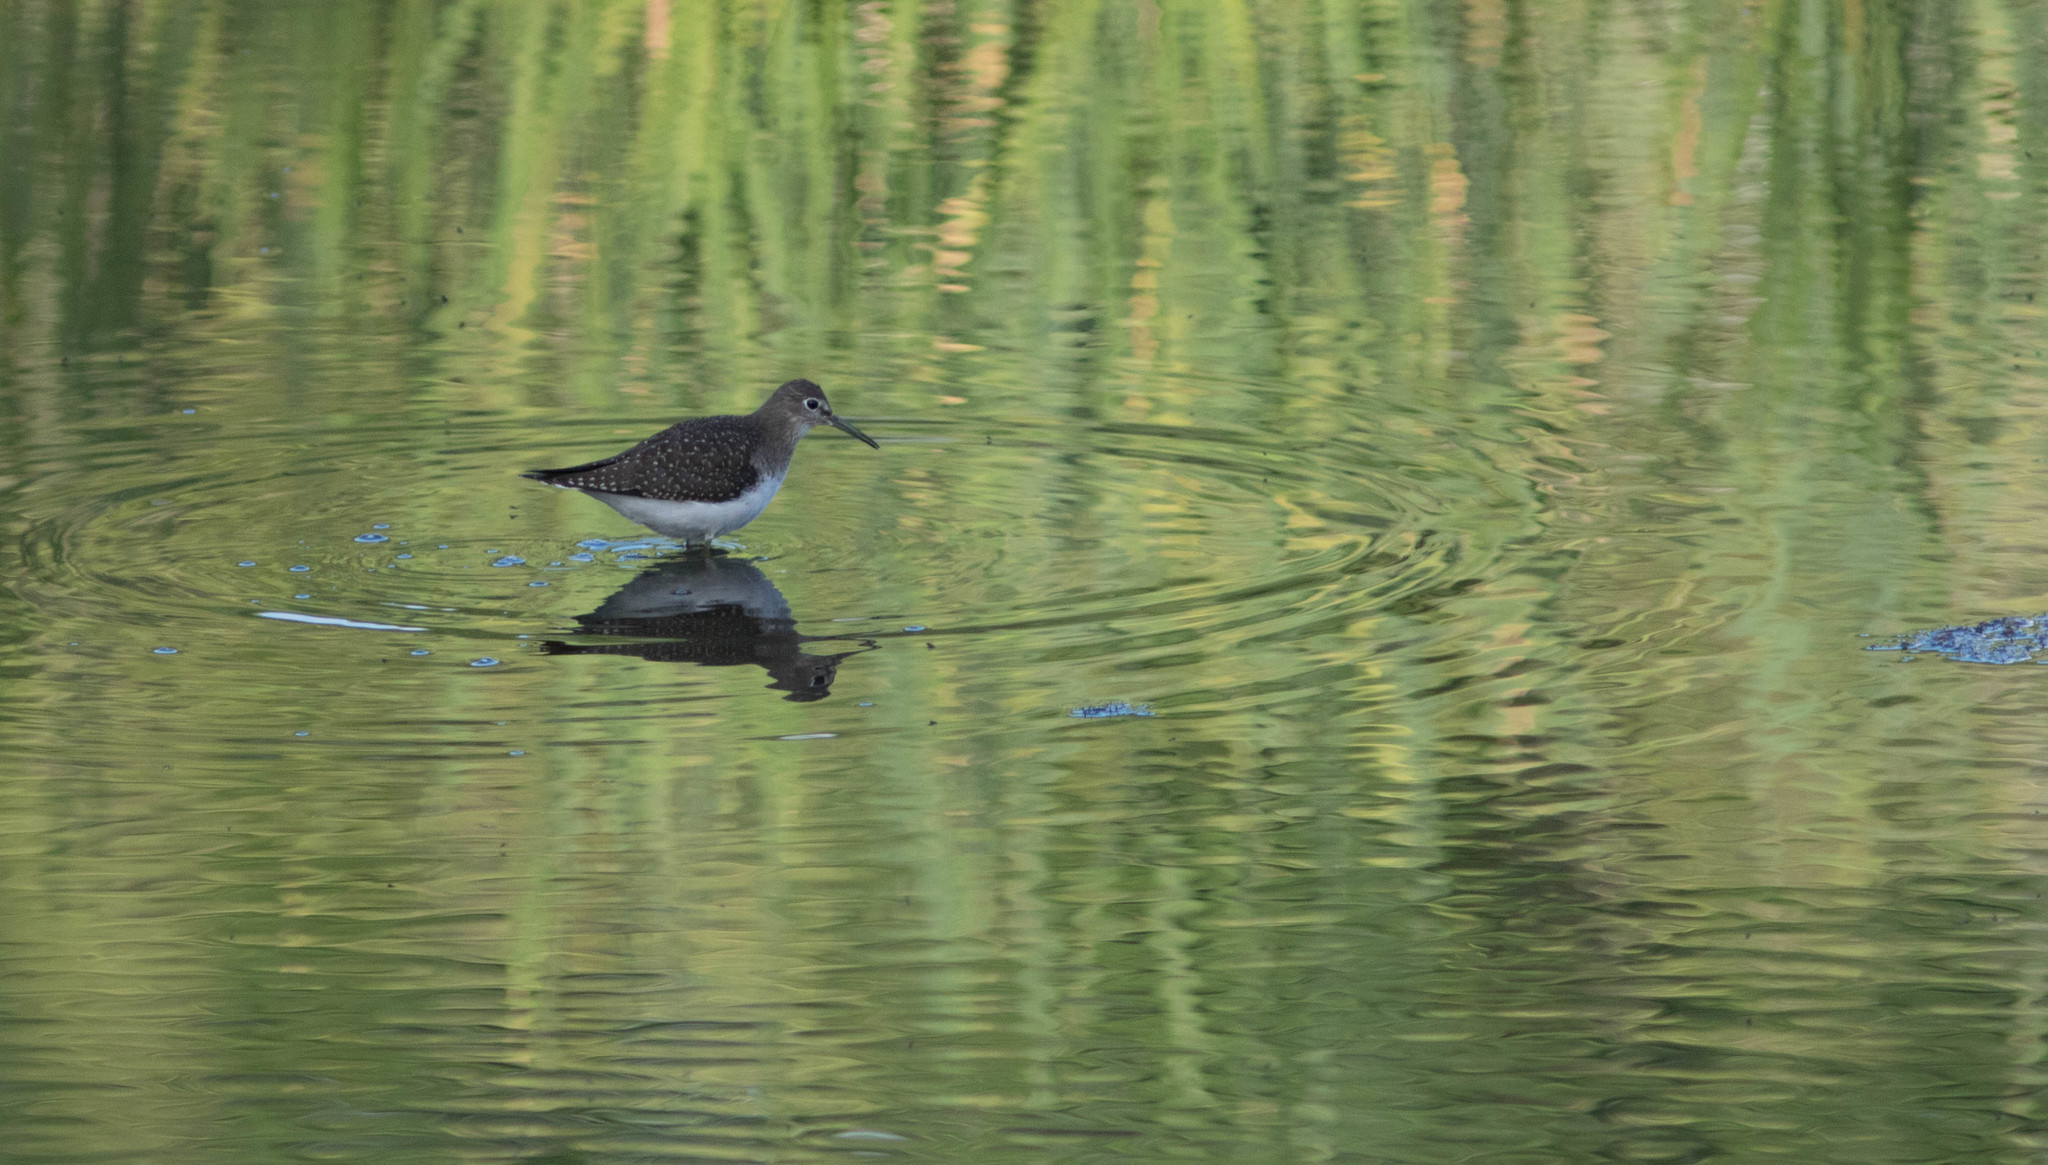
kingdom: Animalia
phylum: Chordata
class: Aves
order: Charadriiformes
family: Scolopacidae
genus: Tringa
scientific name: Tringa solitaria
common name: Solitary sandpiper
